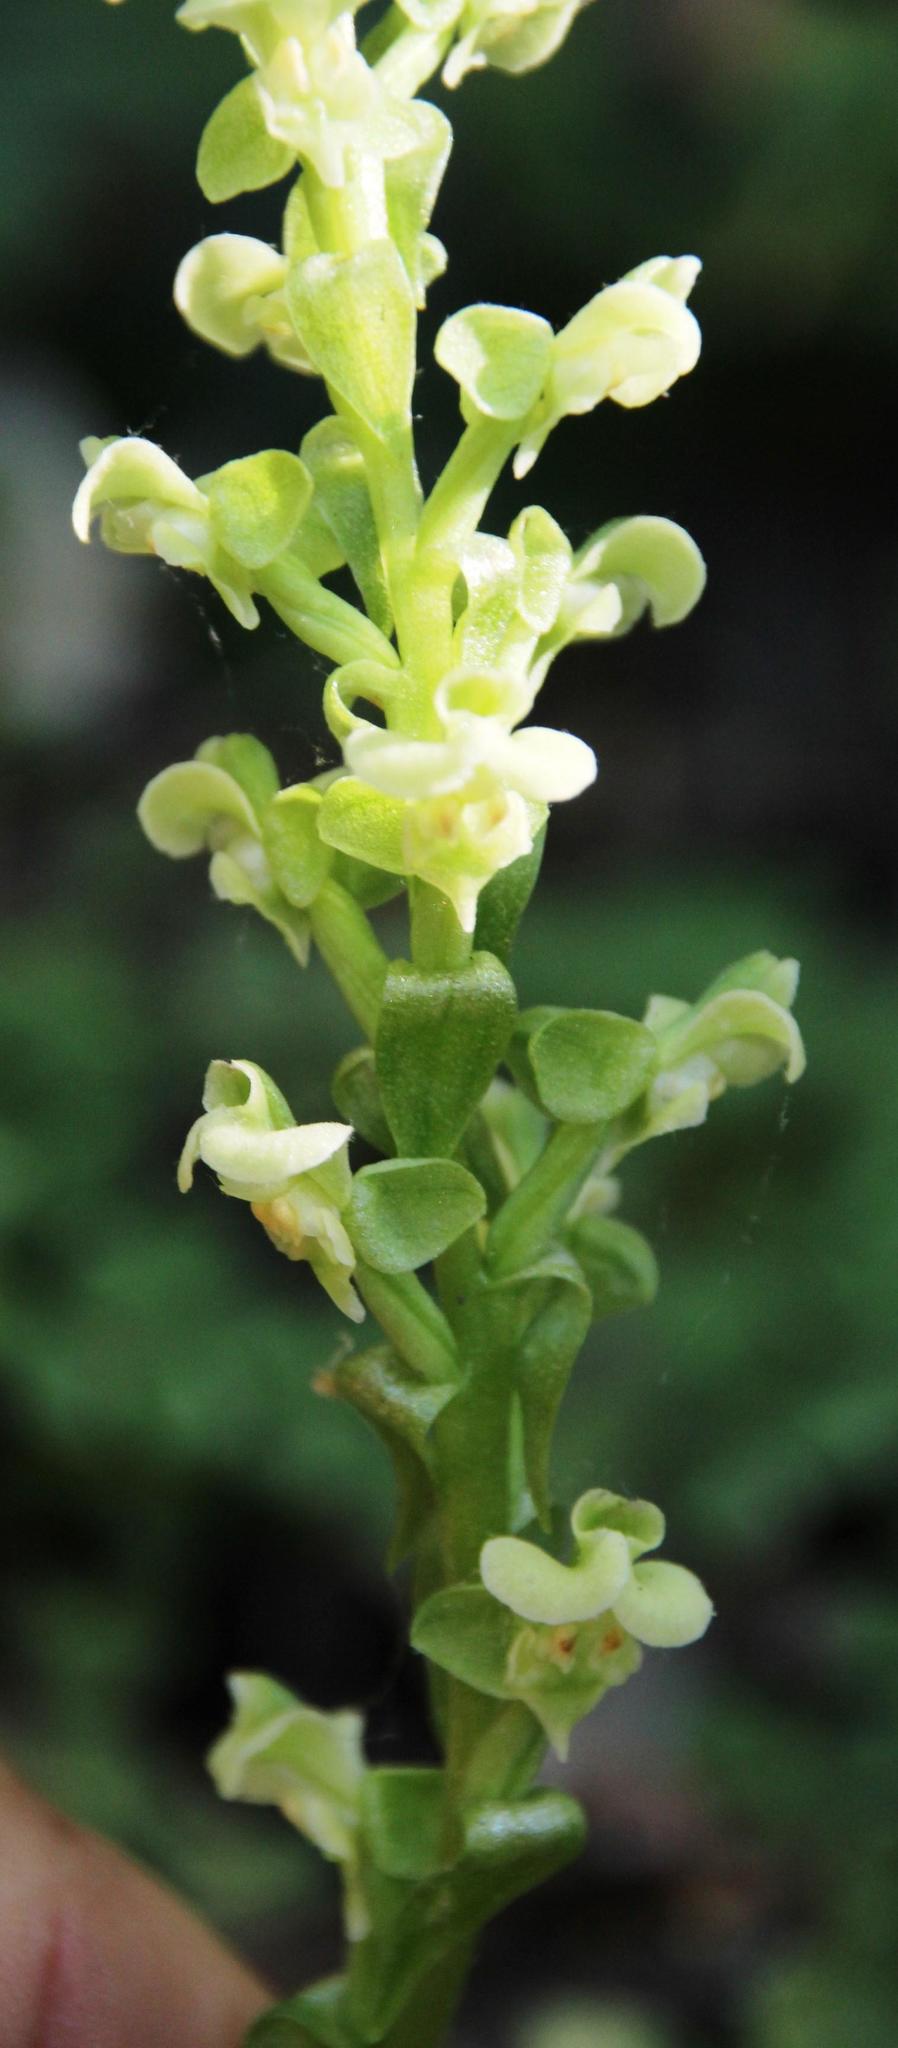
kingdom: Plantae
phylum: Tracheophyta
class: Liliopsida
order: Asparagales
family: Orchidaceae
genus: Pterygodium
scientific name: Pterygodium volucris
